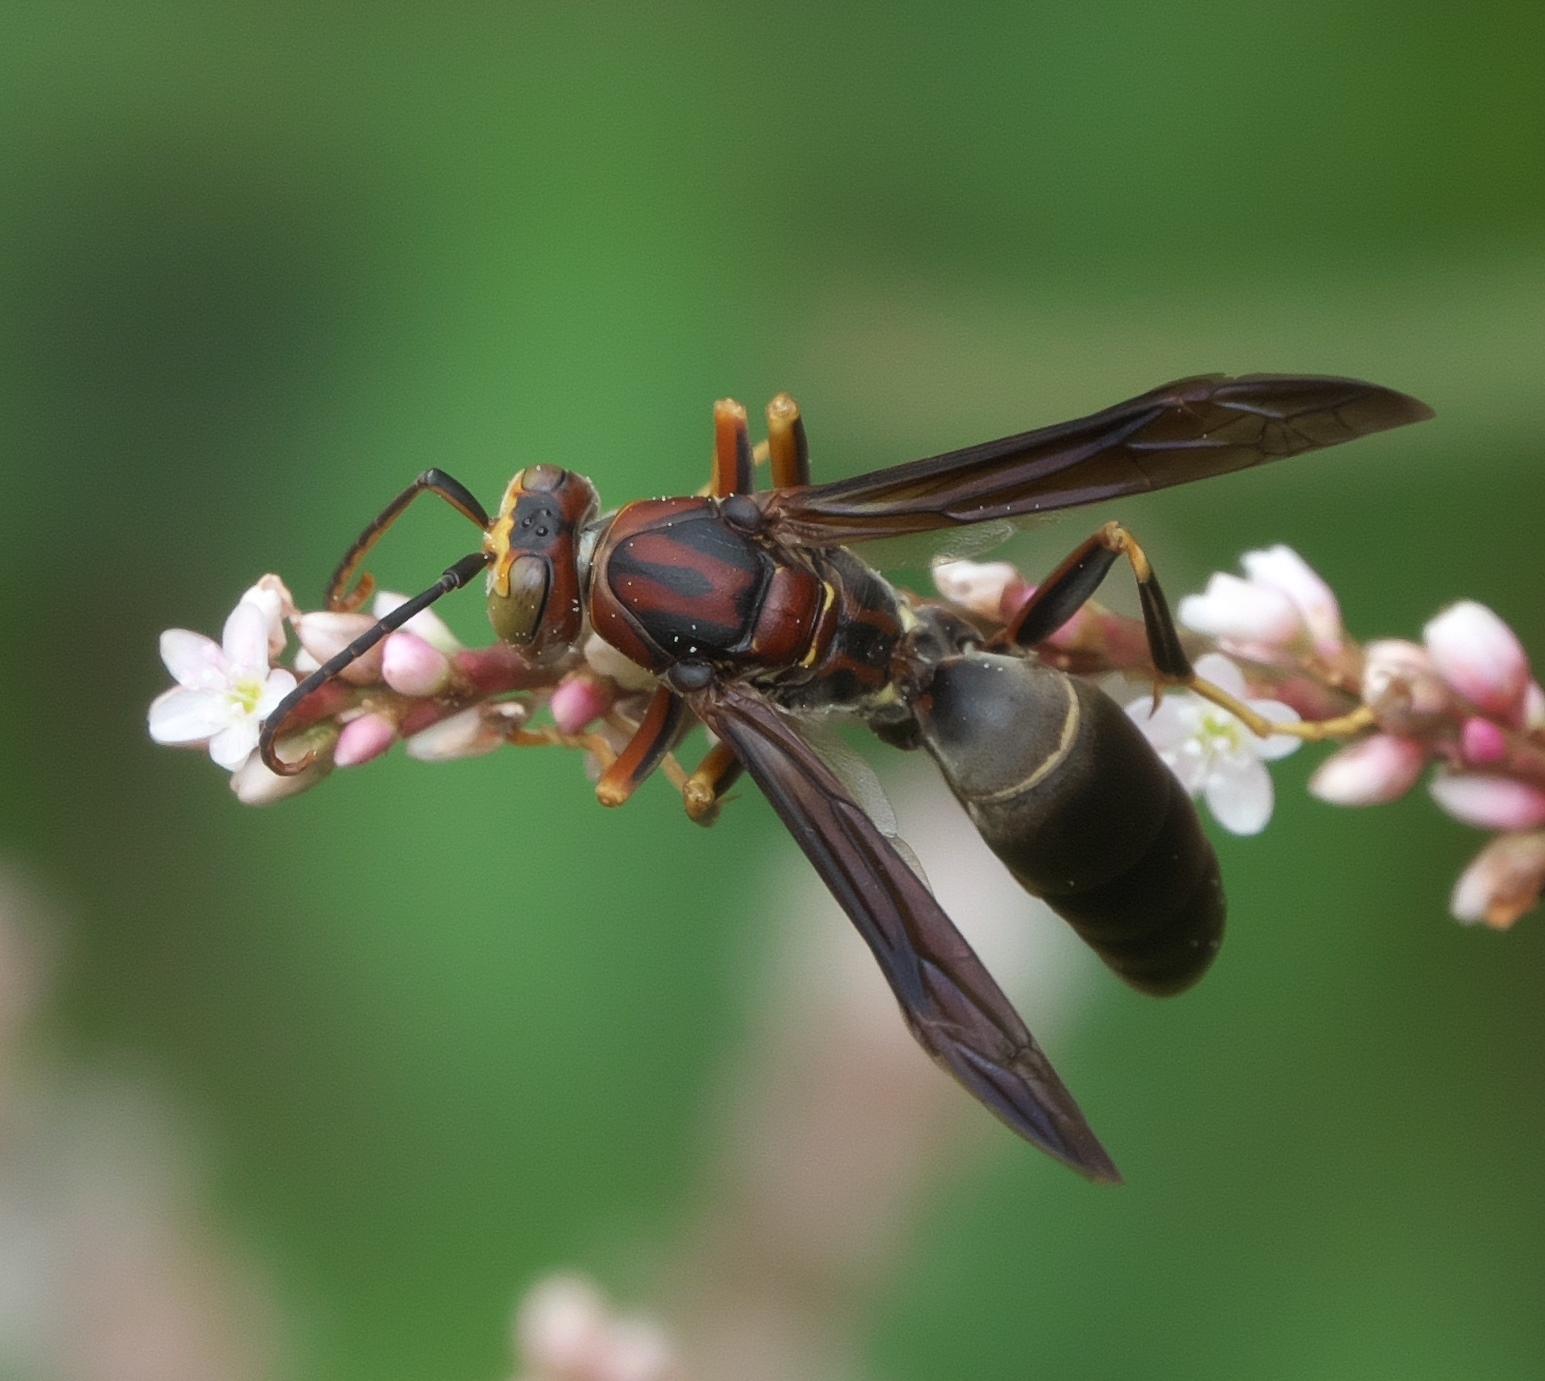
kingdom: Animalia
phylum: Arthropoda
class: Insecta
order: Hymenoptera
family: Eumenidae
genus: Polistes
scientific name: Polistes metricus
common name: Metric paper wasp
